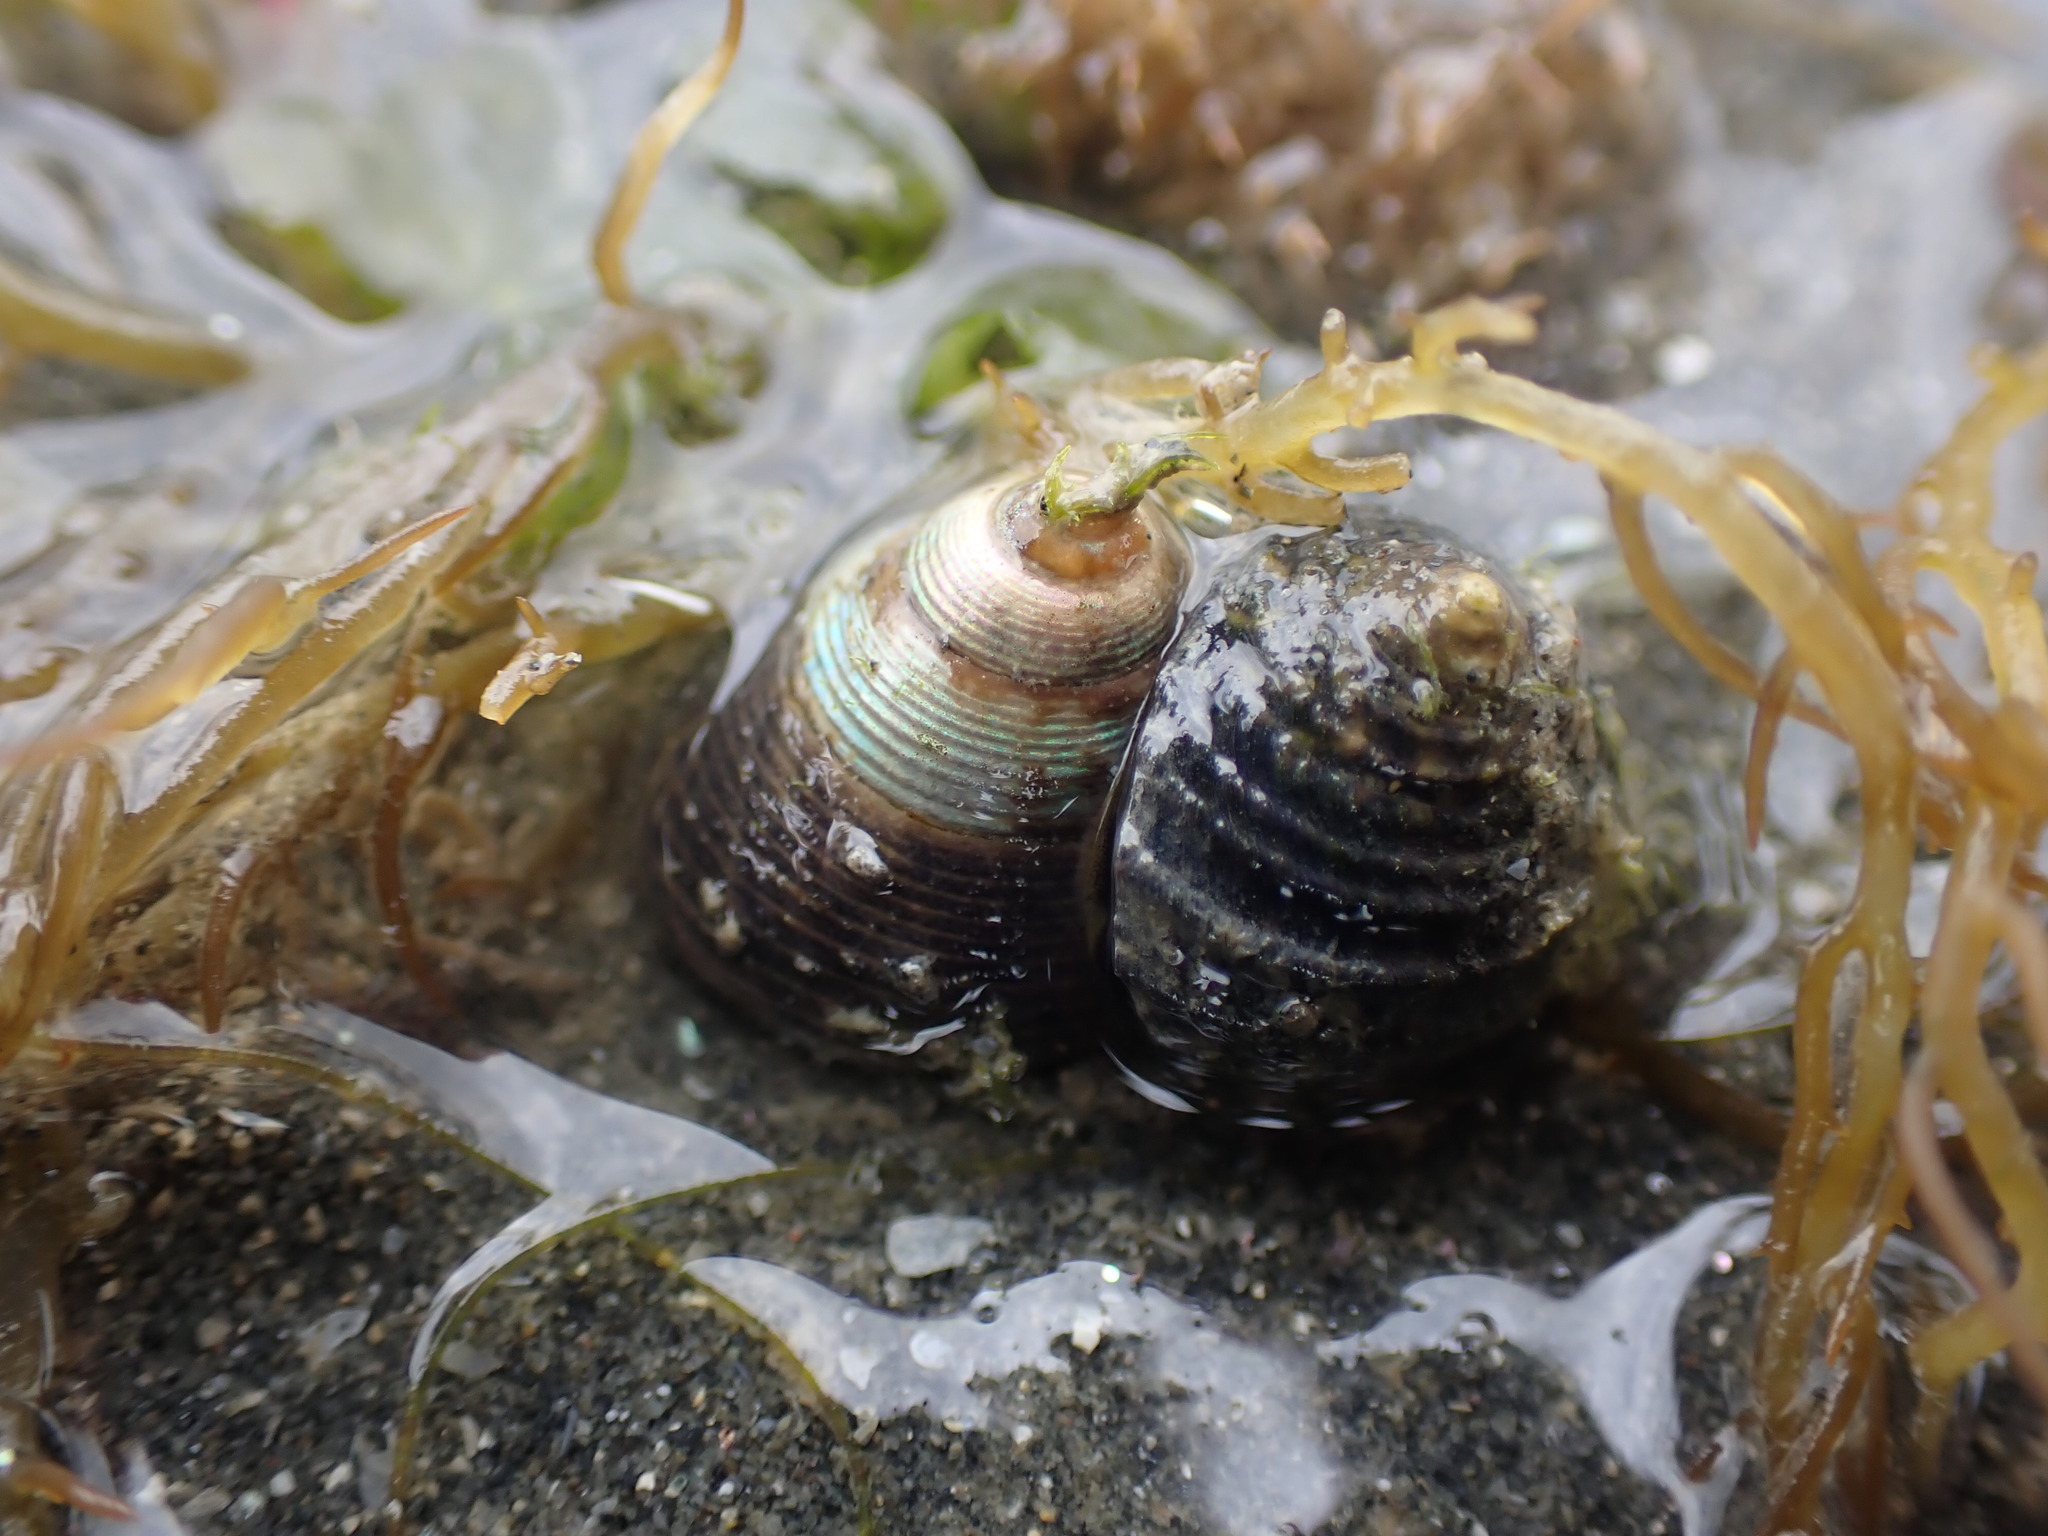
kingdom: Animalia
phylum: Mollusca
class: Gastropoda
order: Trochida
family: Trochidae
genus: Micrelenchus
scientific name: Micrelenchus huttonii
